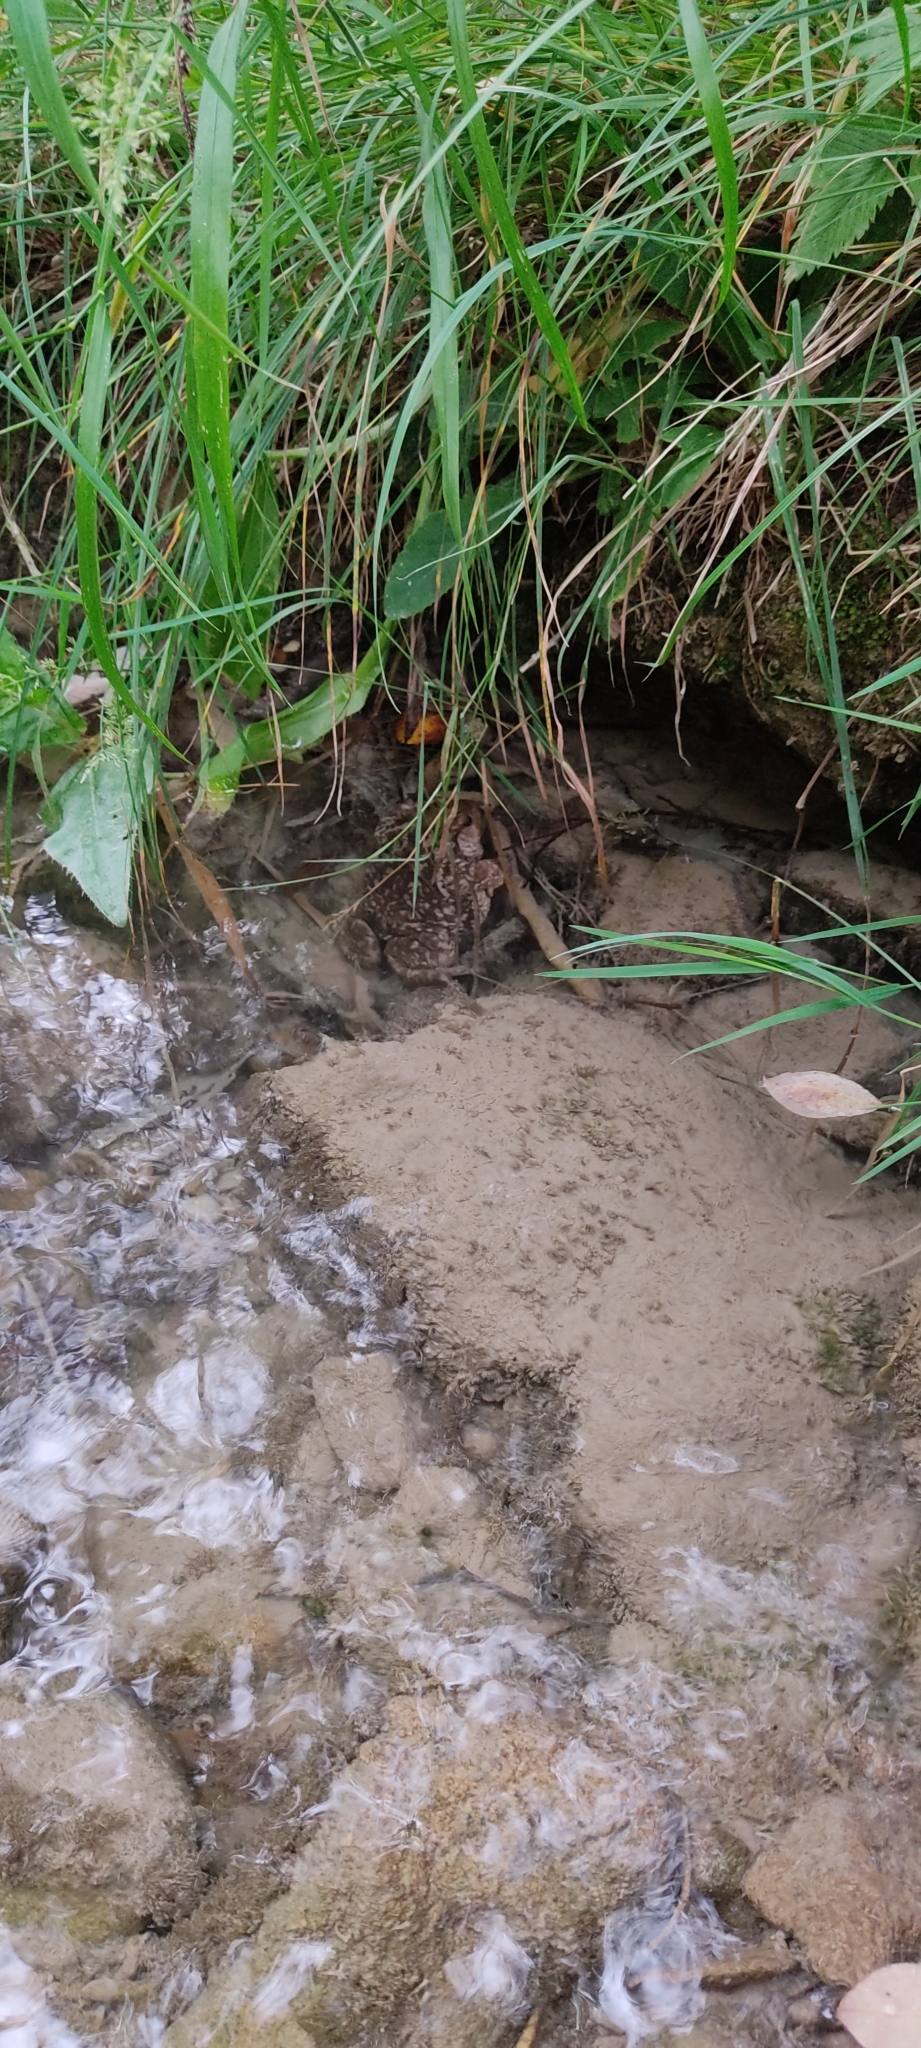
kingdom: Animalia
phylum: Chordata
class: Amphibia
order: Anura
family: Bufonidae
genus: Bufo
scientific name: Bufo spinosus
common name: Western common toad
